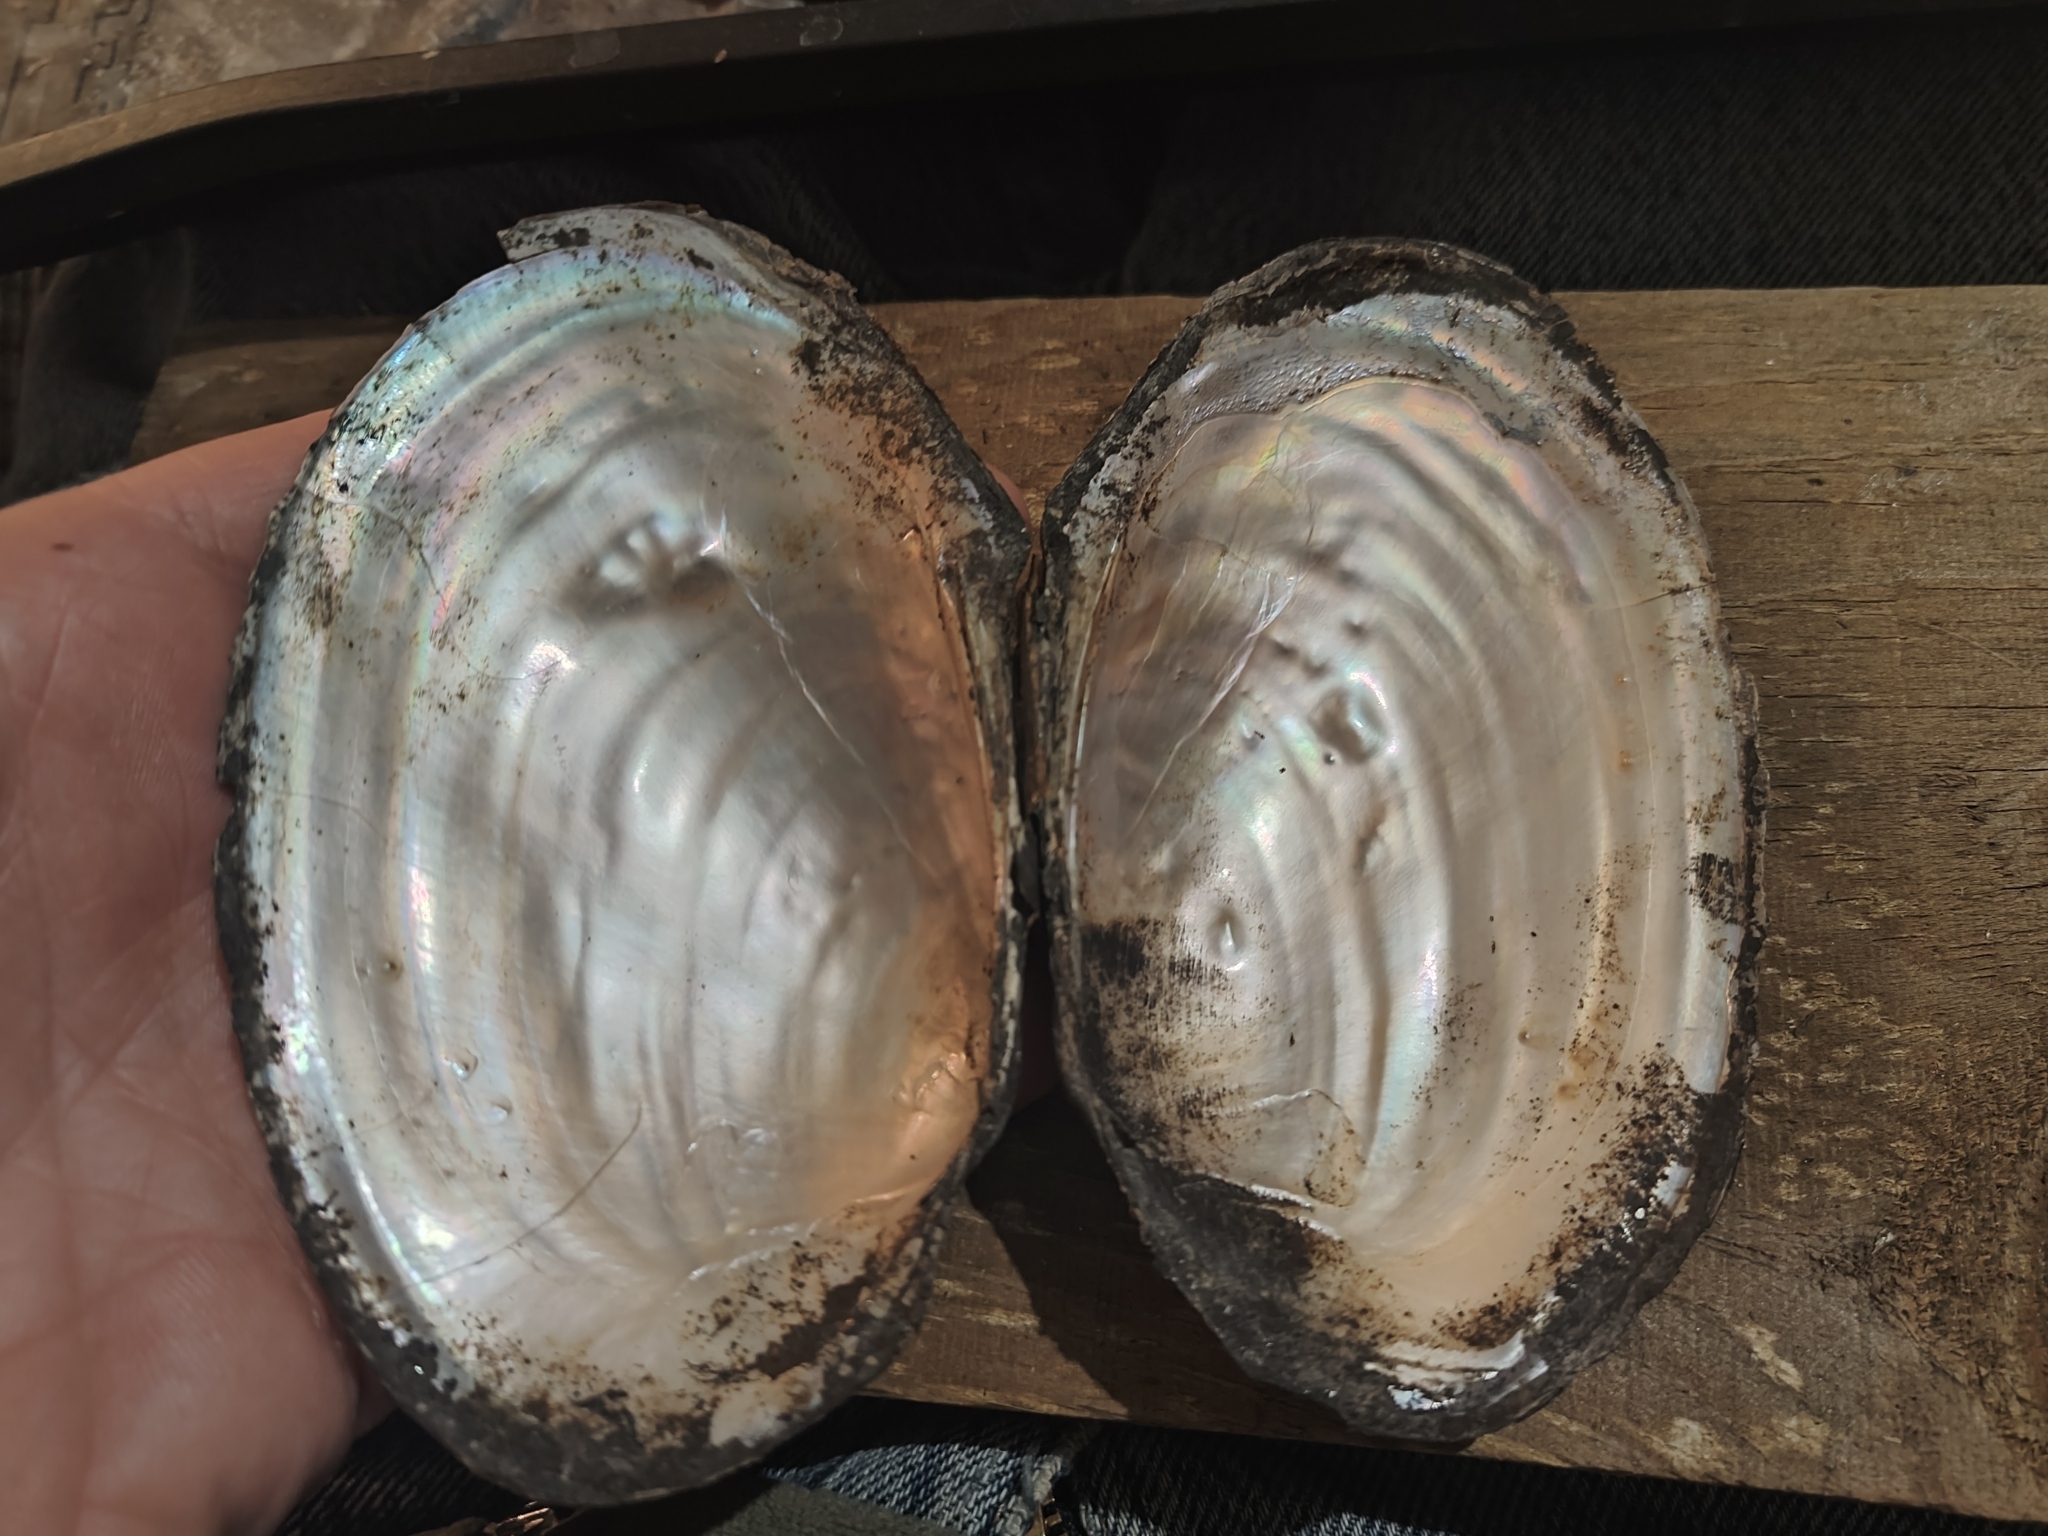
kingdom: Animalia
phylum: Mollusca
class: Bivalvia
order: Unionida
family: Unionidae
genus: Potamilus
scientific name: Potamilus fragilis
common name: Fragile papershell
